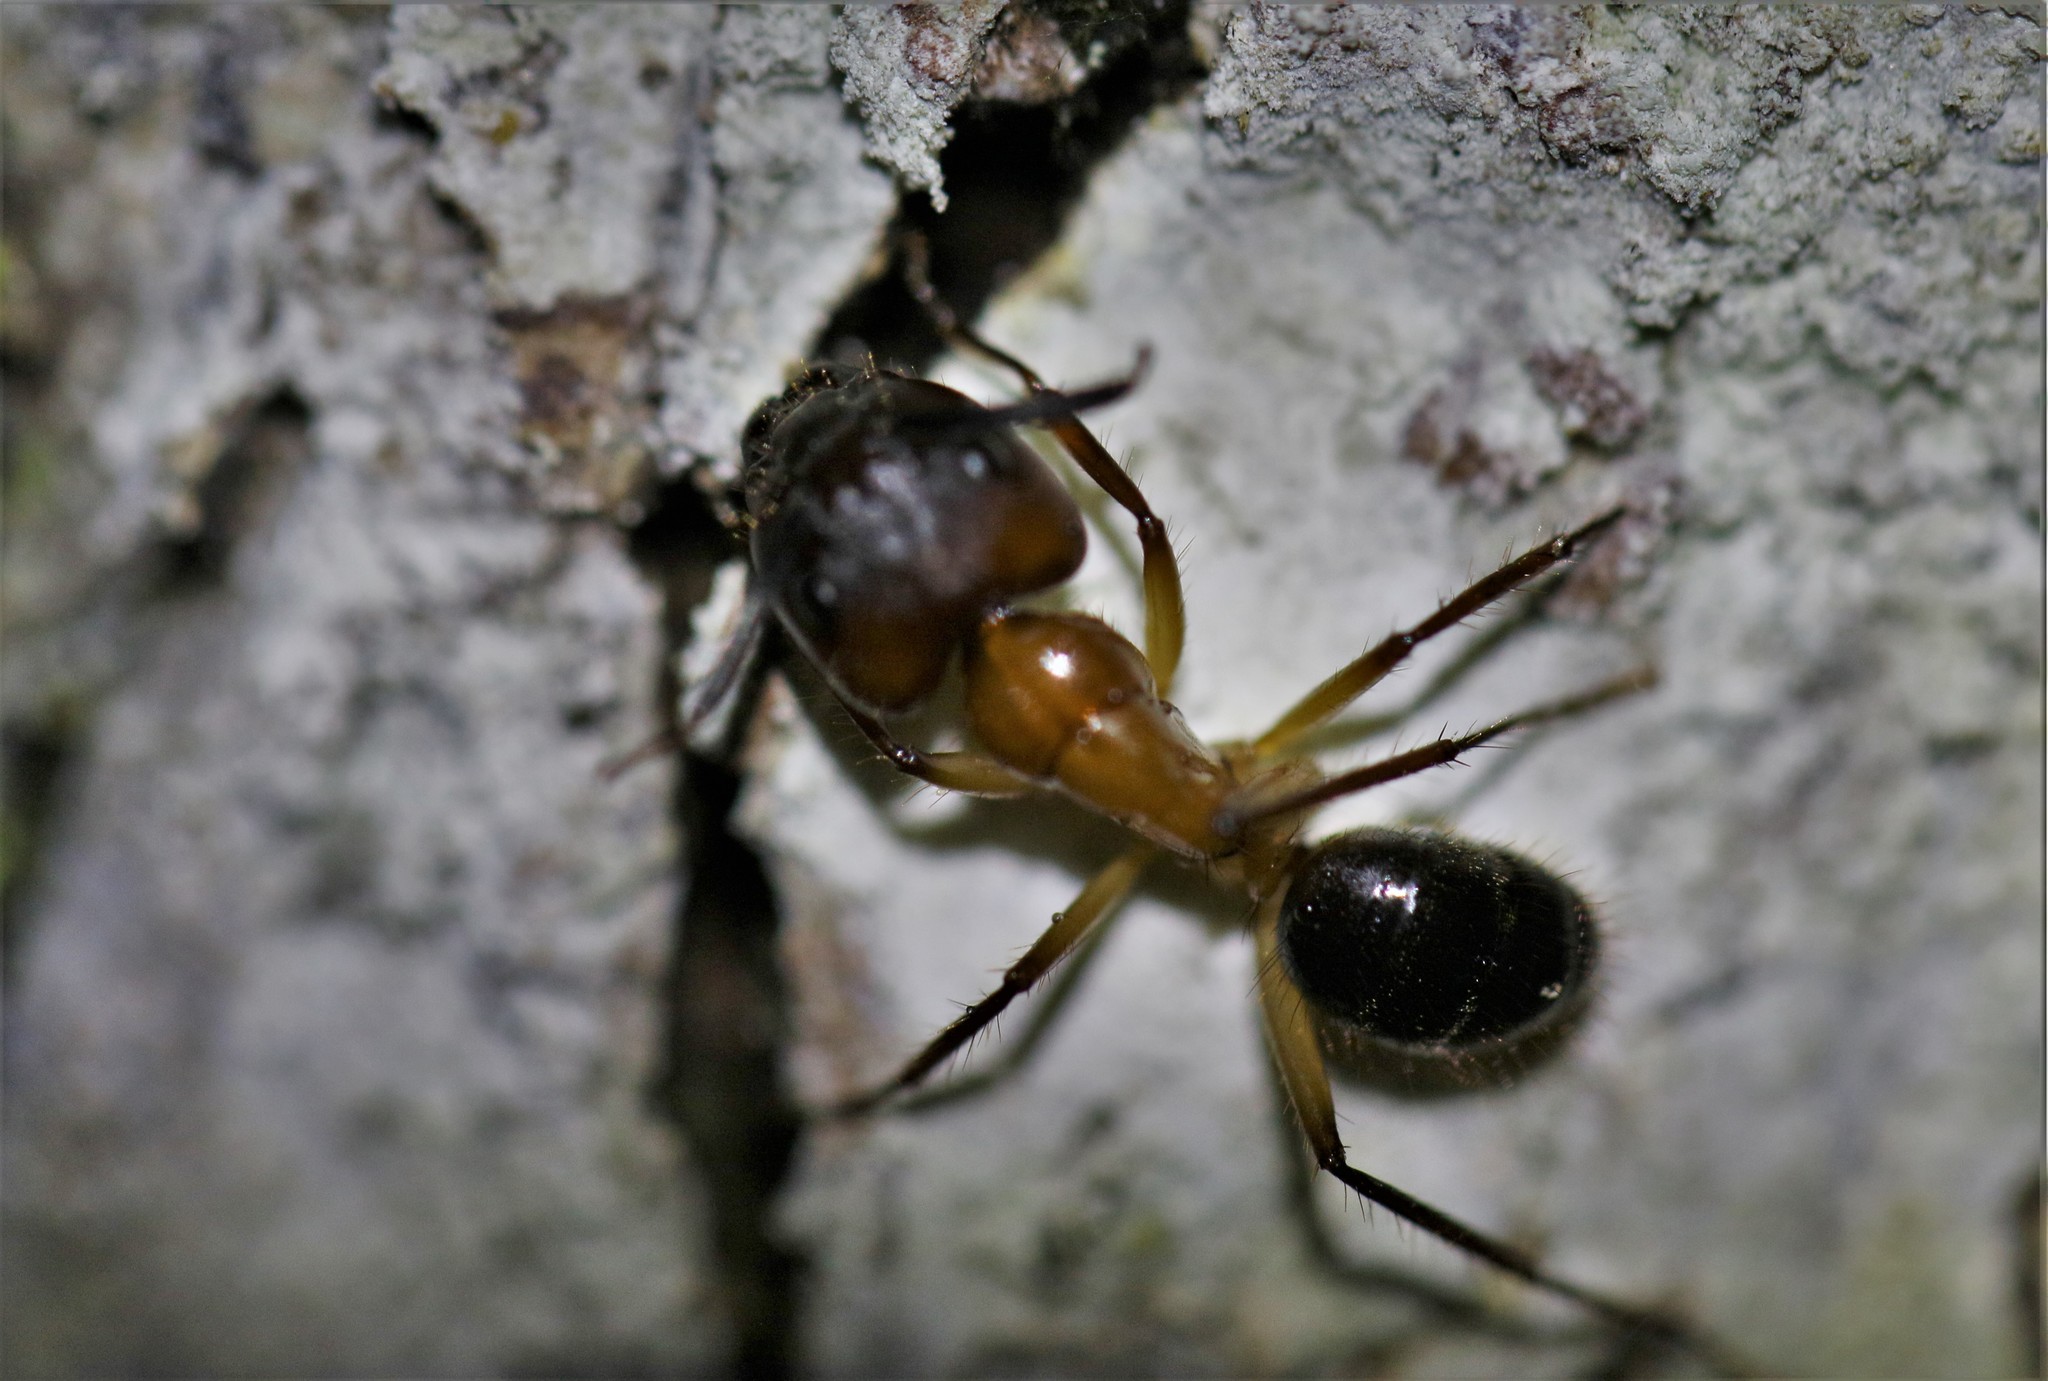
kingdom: Animalia
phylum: Arthropoda
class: Insecta
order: Hymenoptera
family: Formicidae
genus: Camponotus
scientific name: Camponotus atriceps
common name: Florida carpenter ant
